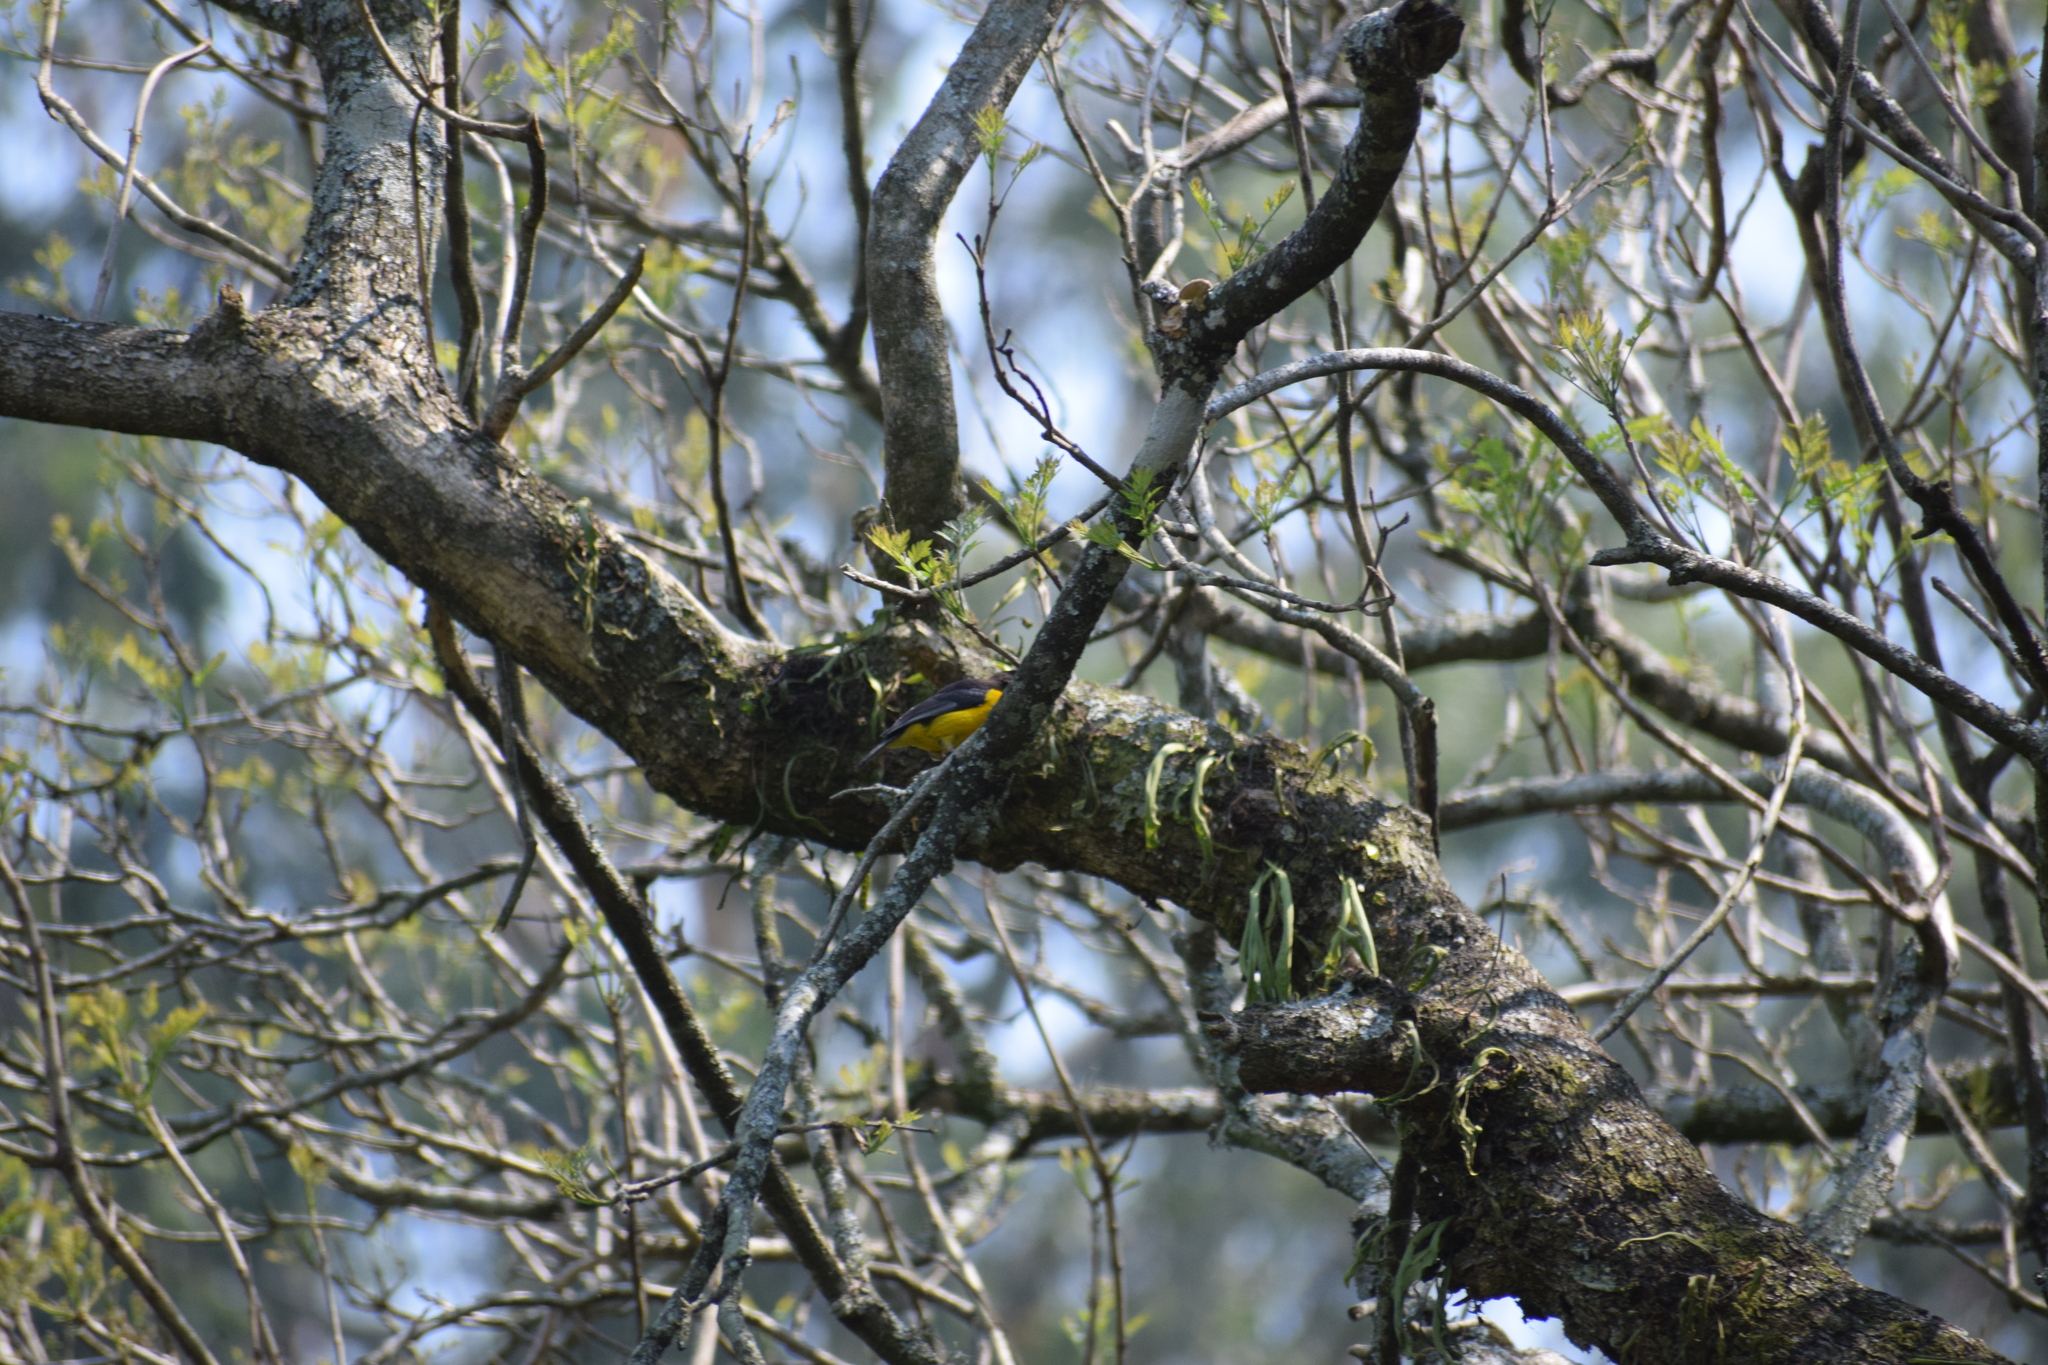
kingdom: Animalia
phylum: Chordata
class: Aves
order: Passeriformes
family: Ploceidae
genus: Ploceus
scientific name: Ploceus bicolor
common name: Dark-backed weaver
